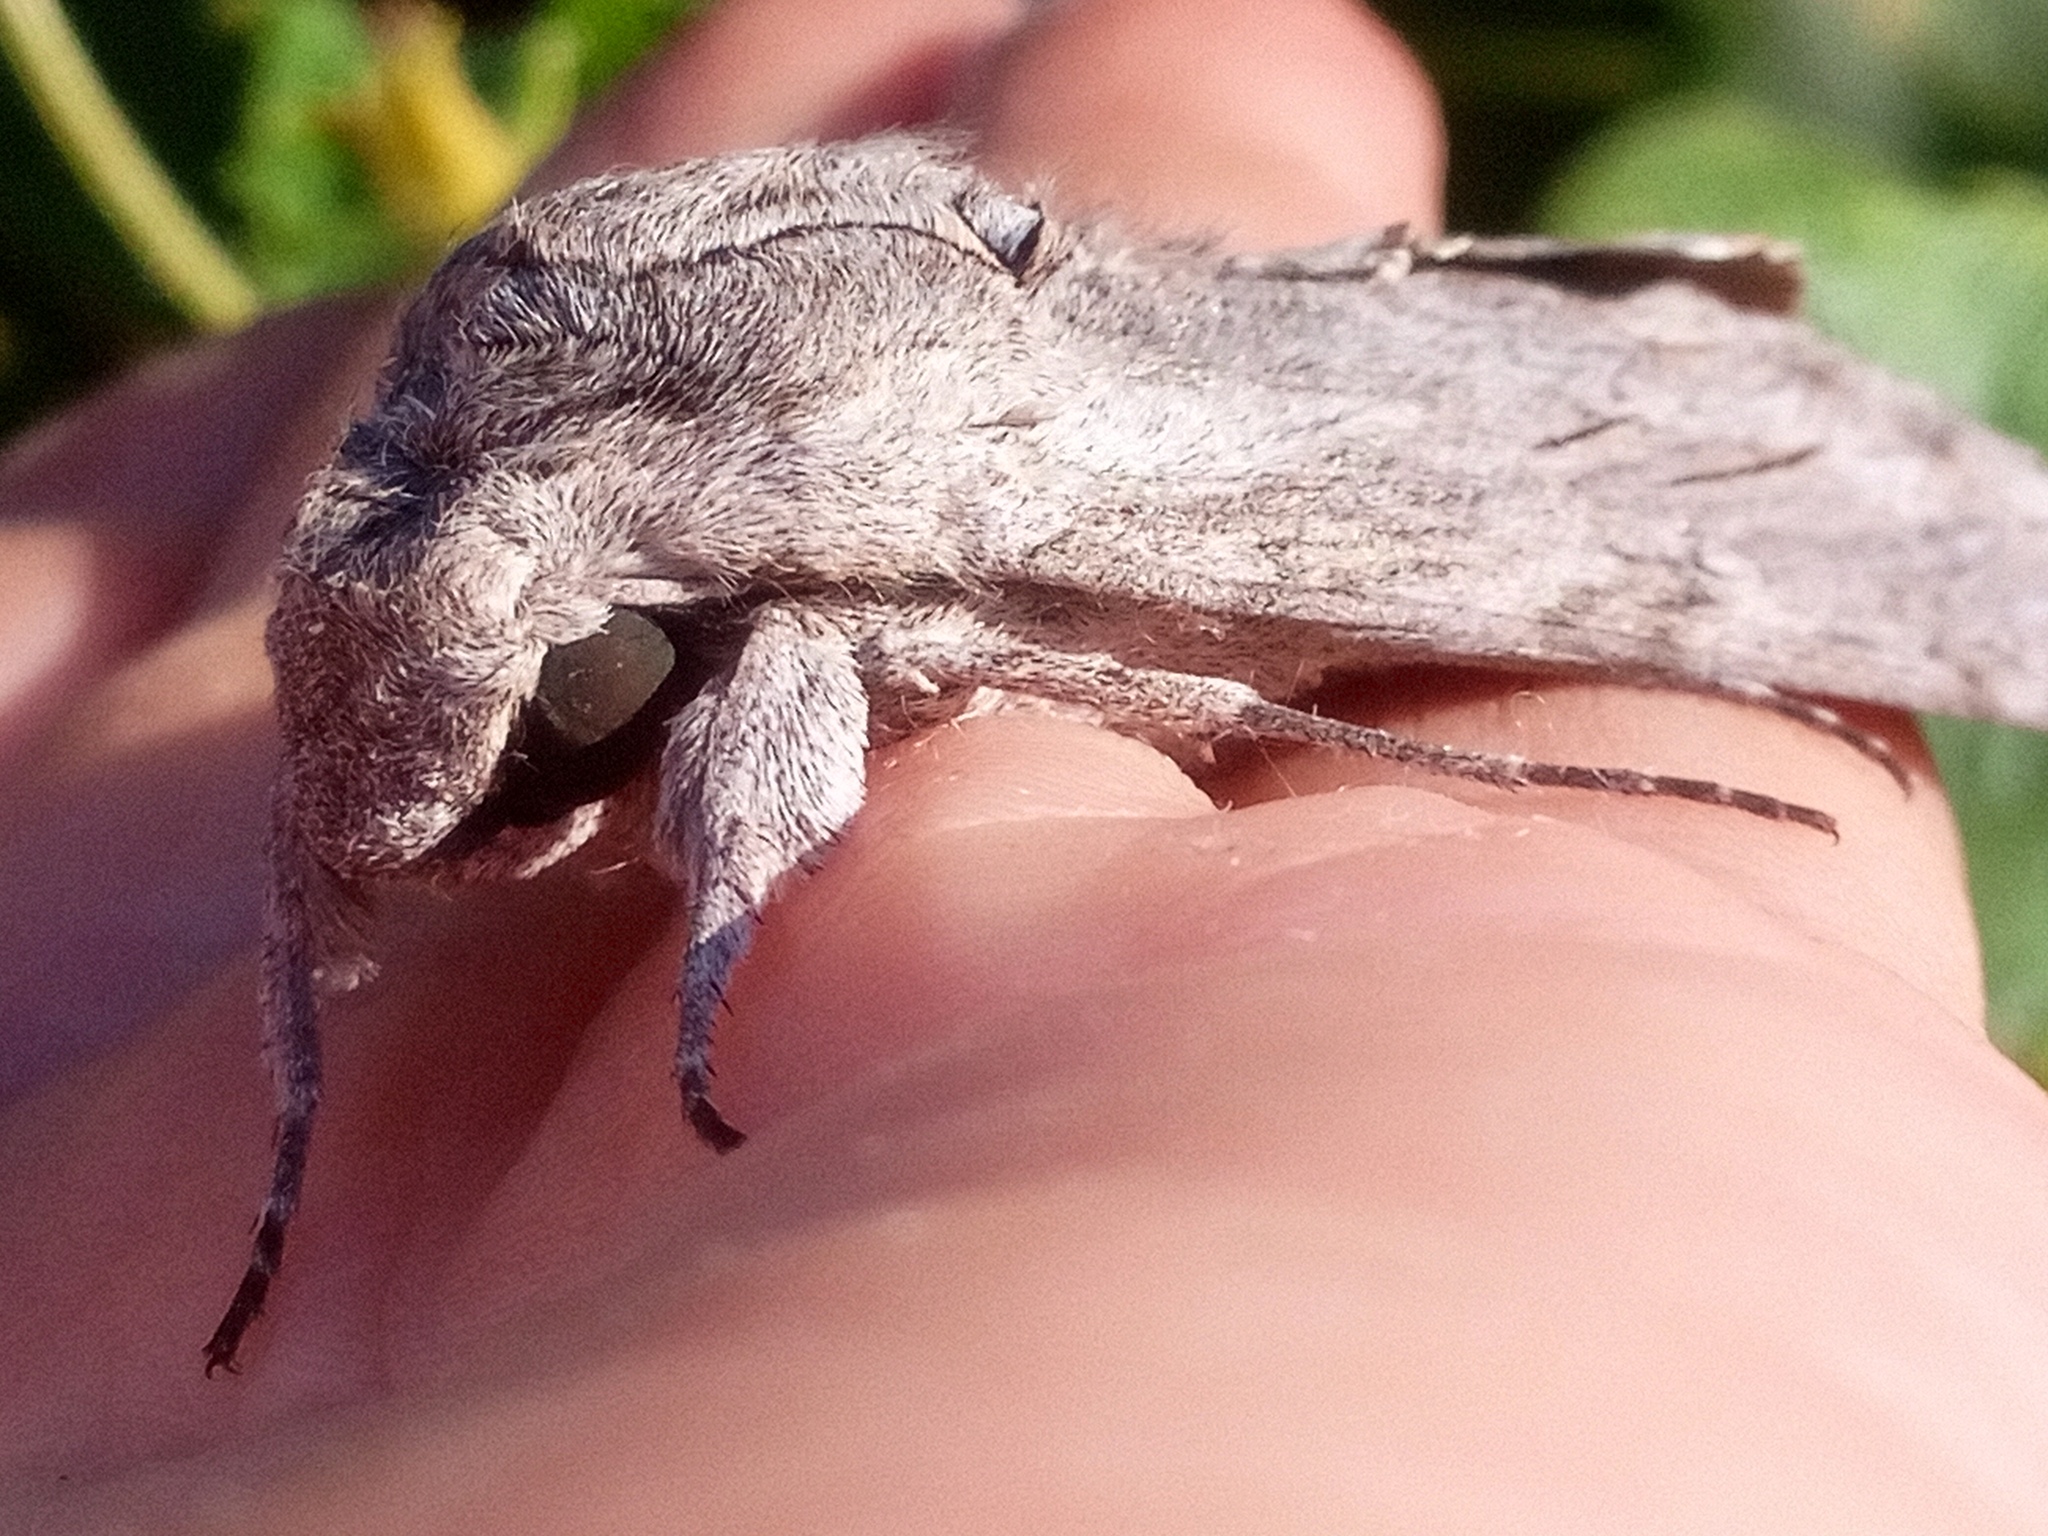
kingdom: Animalia
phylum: Arthropoda
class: Insecta
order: Lepidoptera
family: Sphingidae
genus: Agrius
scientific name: Agrius convolvuli
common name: Convolvulus hawkmoth
